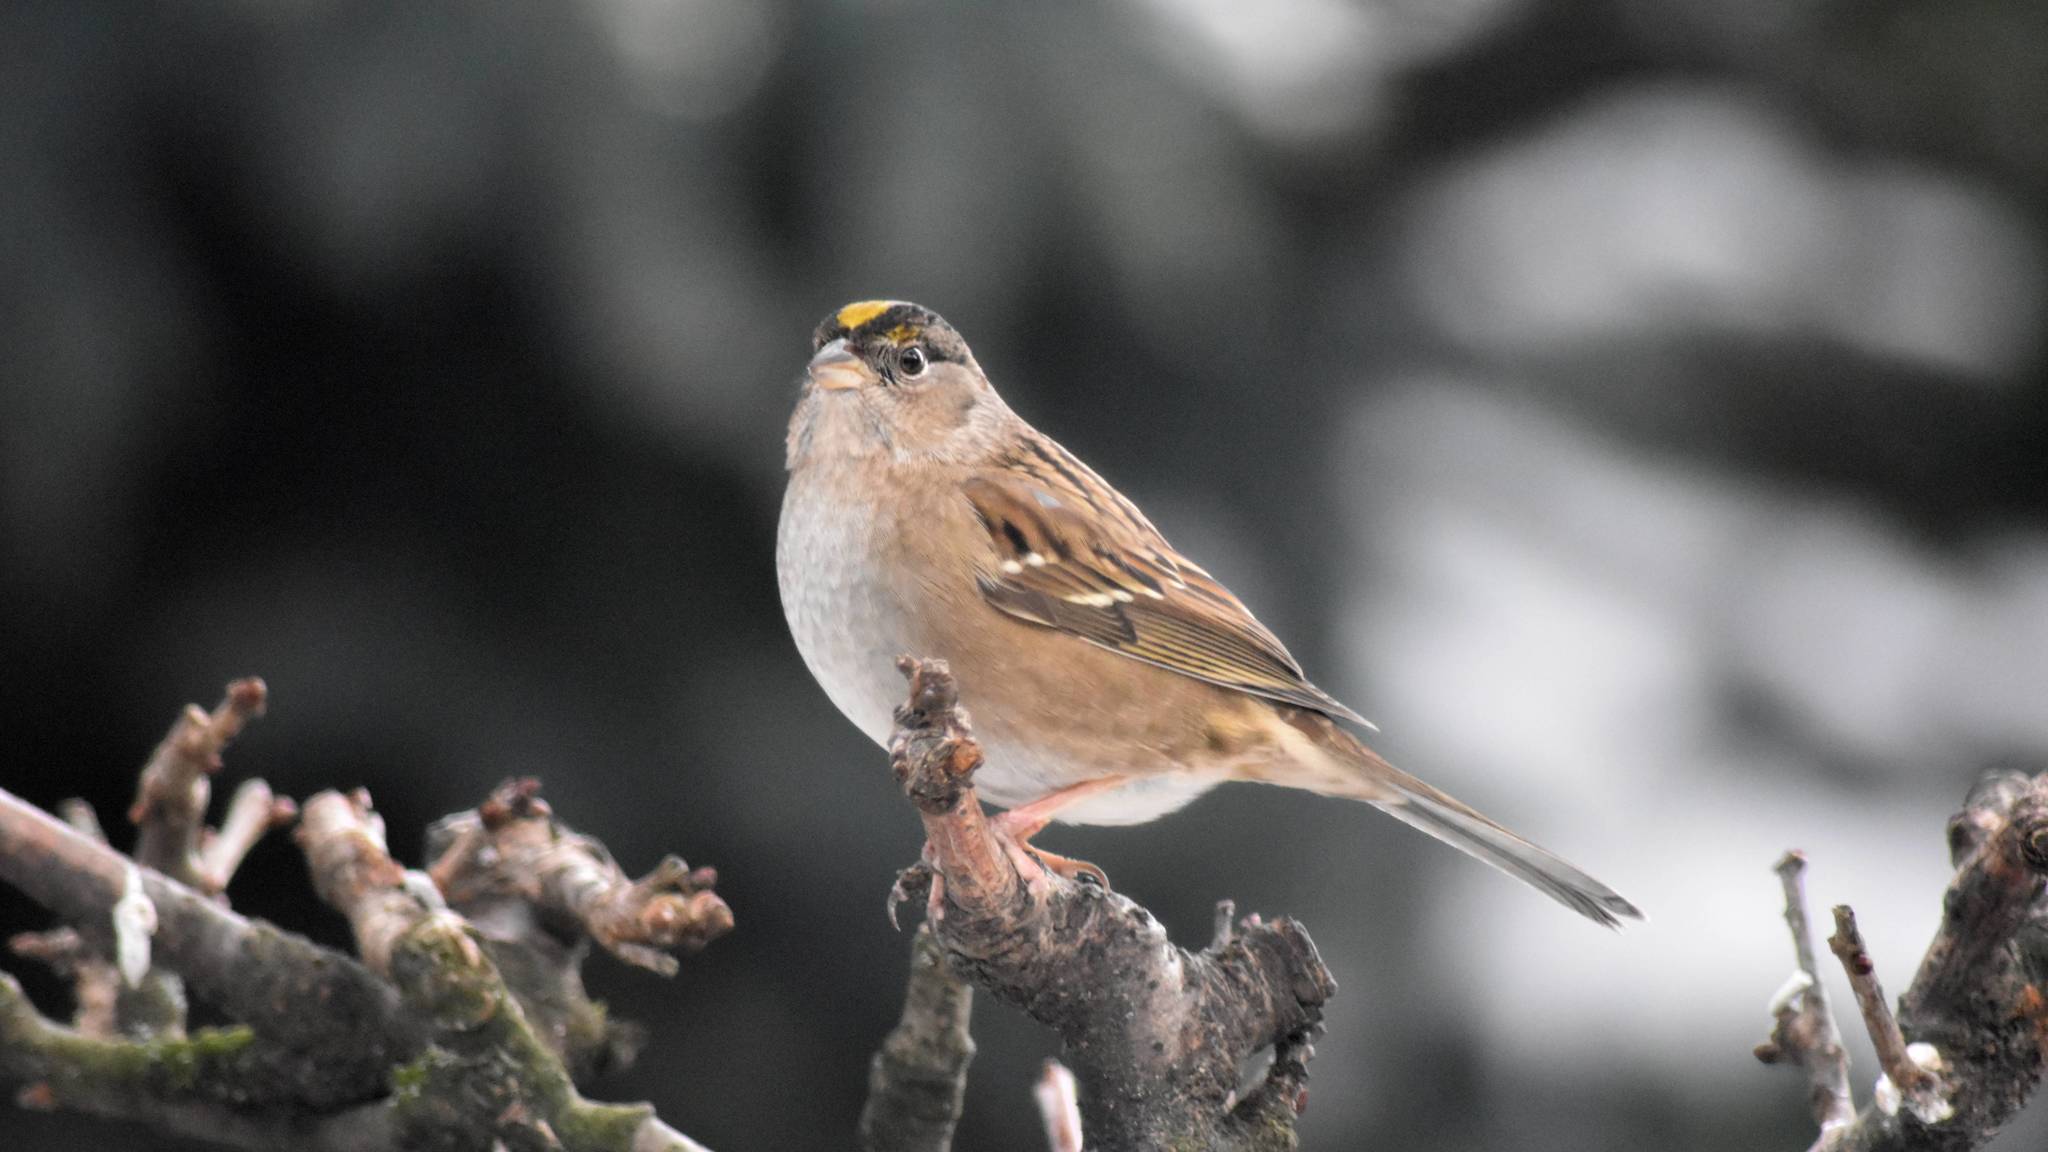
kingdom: Animalia
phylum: Chordata
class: Aves
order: Passeriformes
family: Passerellidae
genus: Zonotrichia
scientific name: Zonotrichia atricapilla
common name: Golden-crowned sparrow
